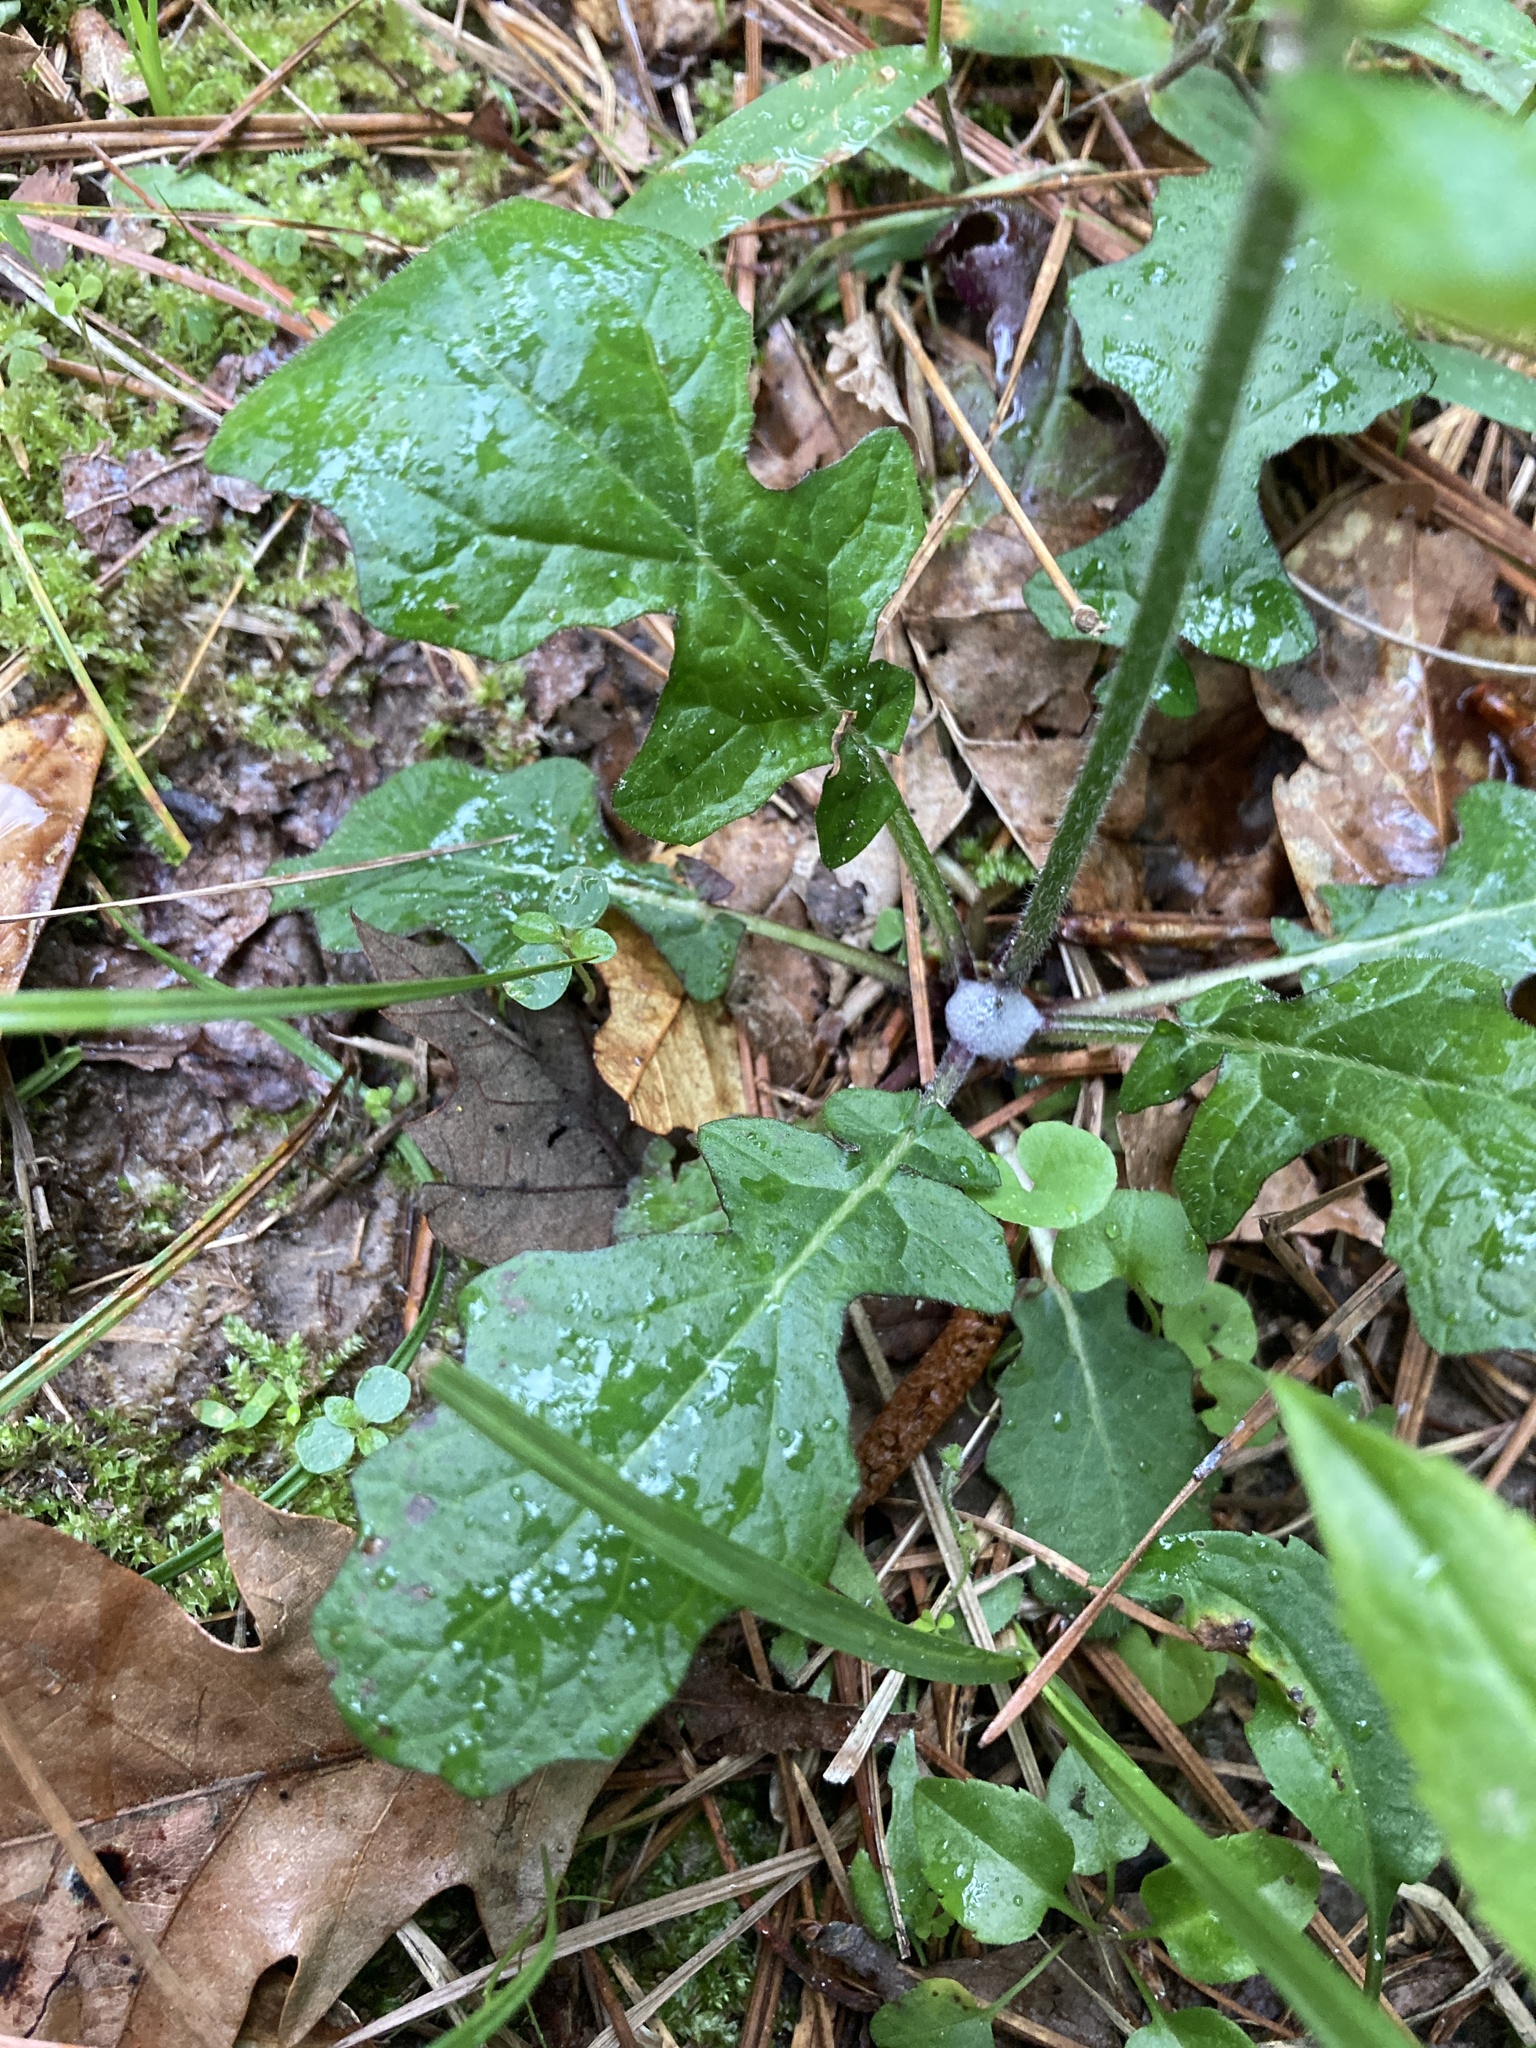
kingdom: Plantae
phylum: Tracheophyta
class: Magnoliopsida
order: Lamiales
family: Lamiaceae
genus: Salvia
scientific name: Salvia lyrata
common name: Cancerweed
